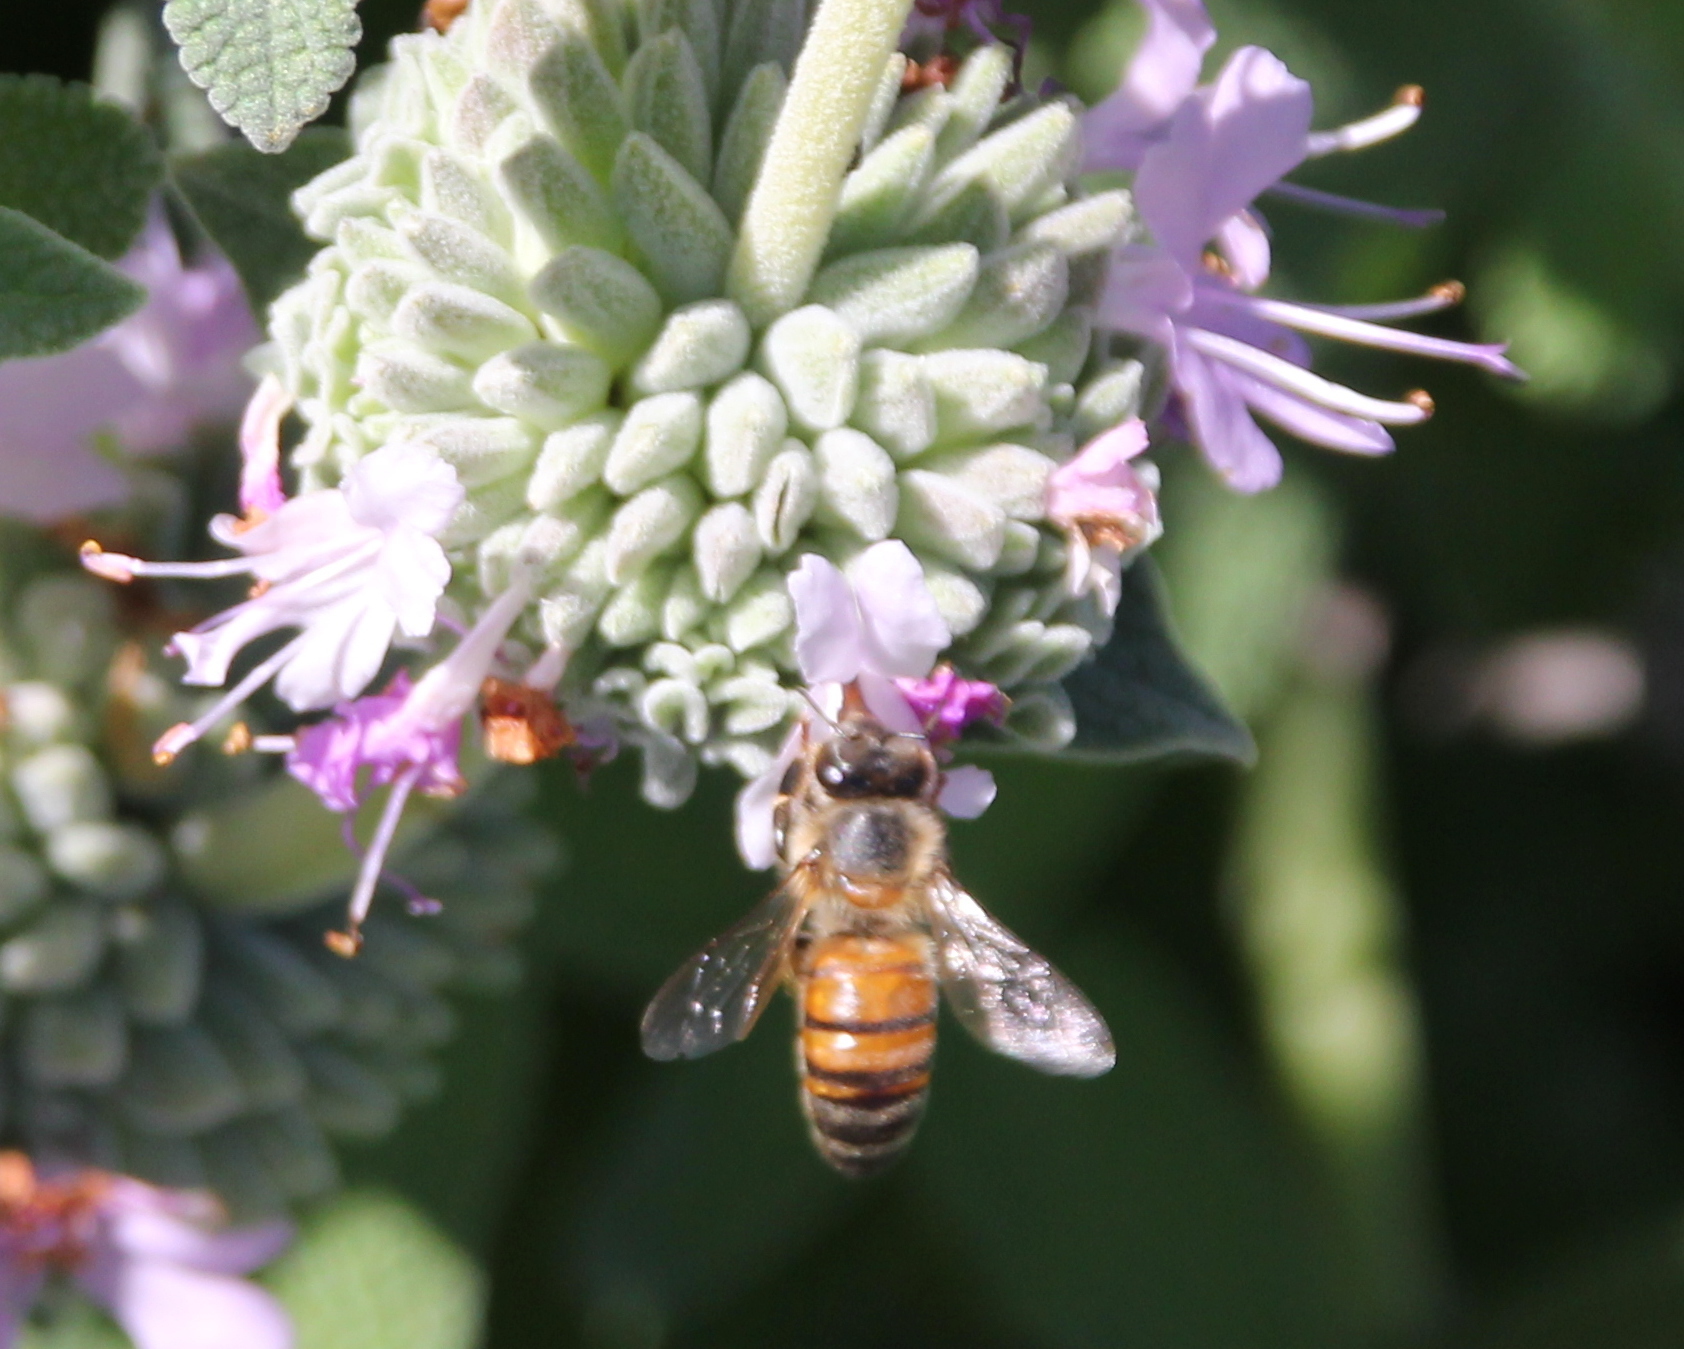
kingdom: Animalia
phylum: Arthropoda
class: Insecta
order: Hymenoptera
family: Apidae
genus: Apis
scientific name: Apis mellifera
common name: Honey bee
